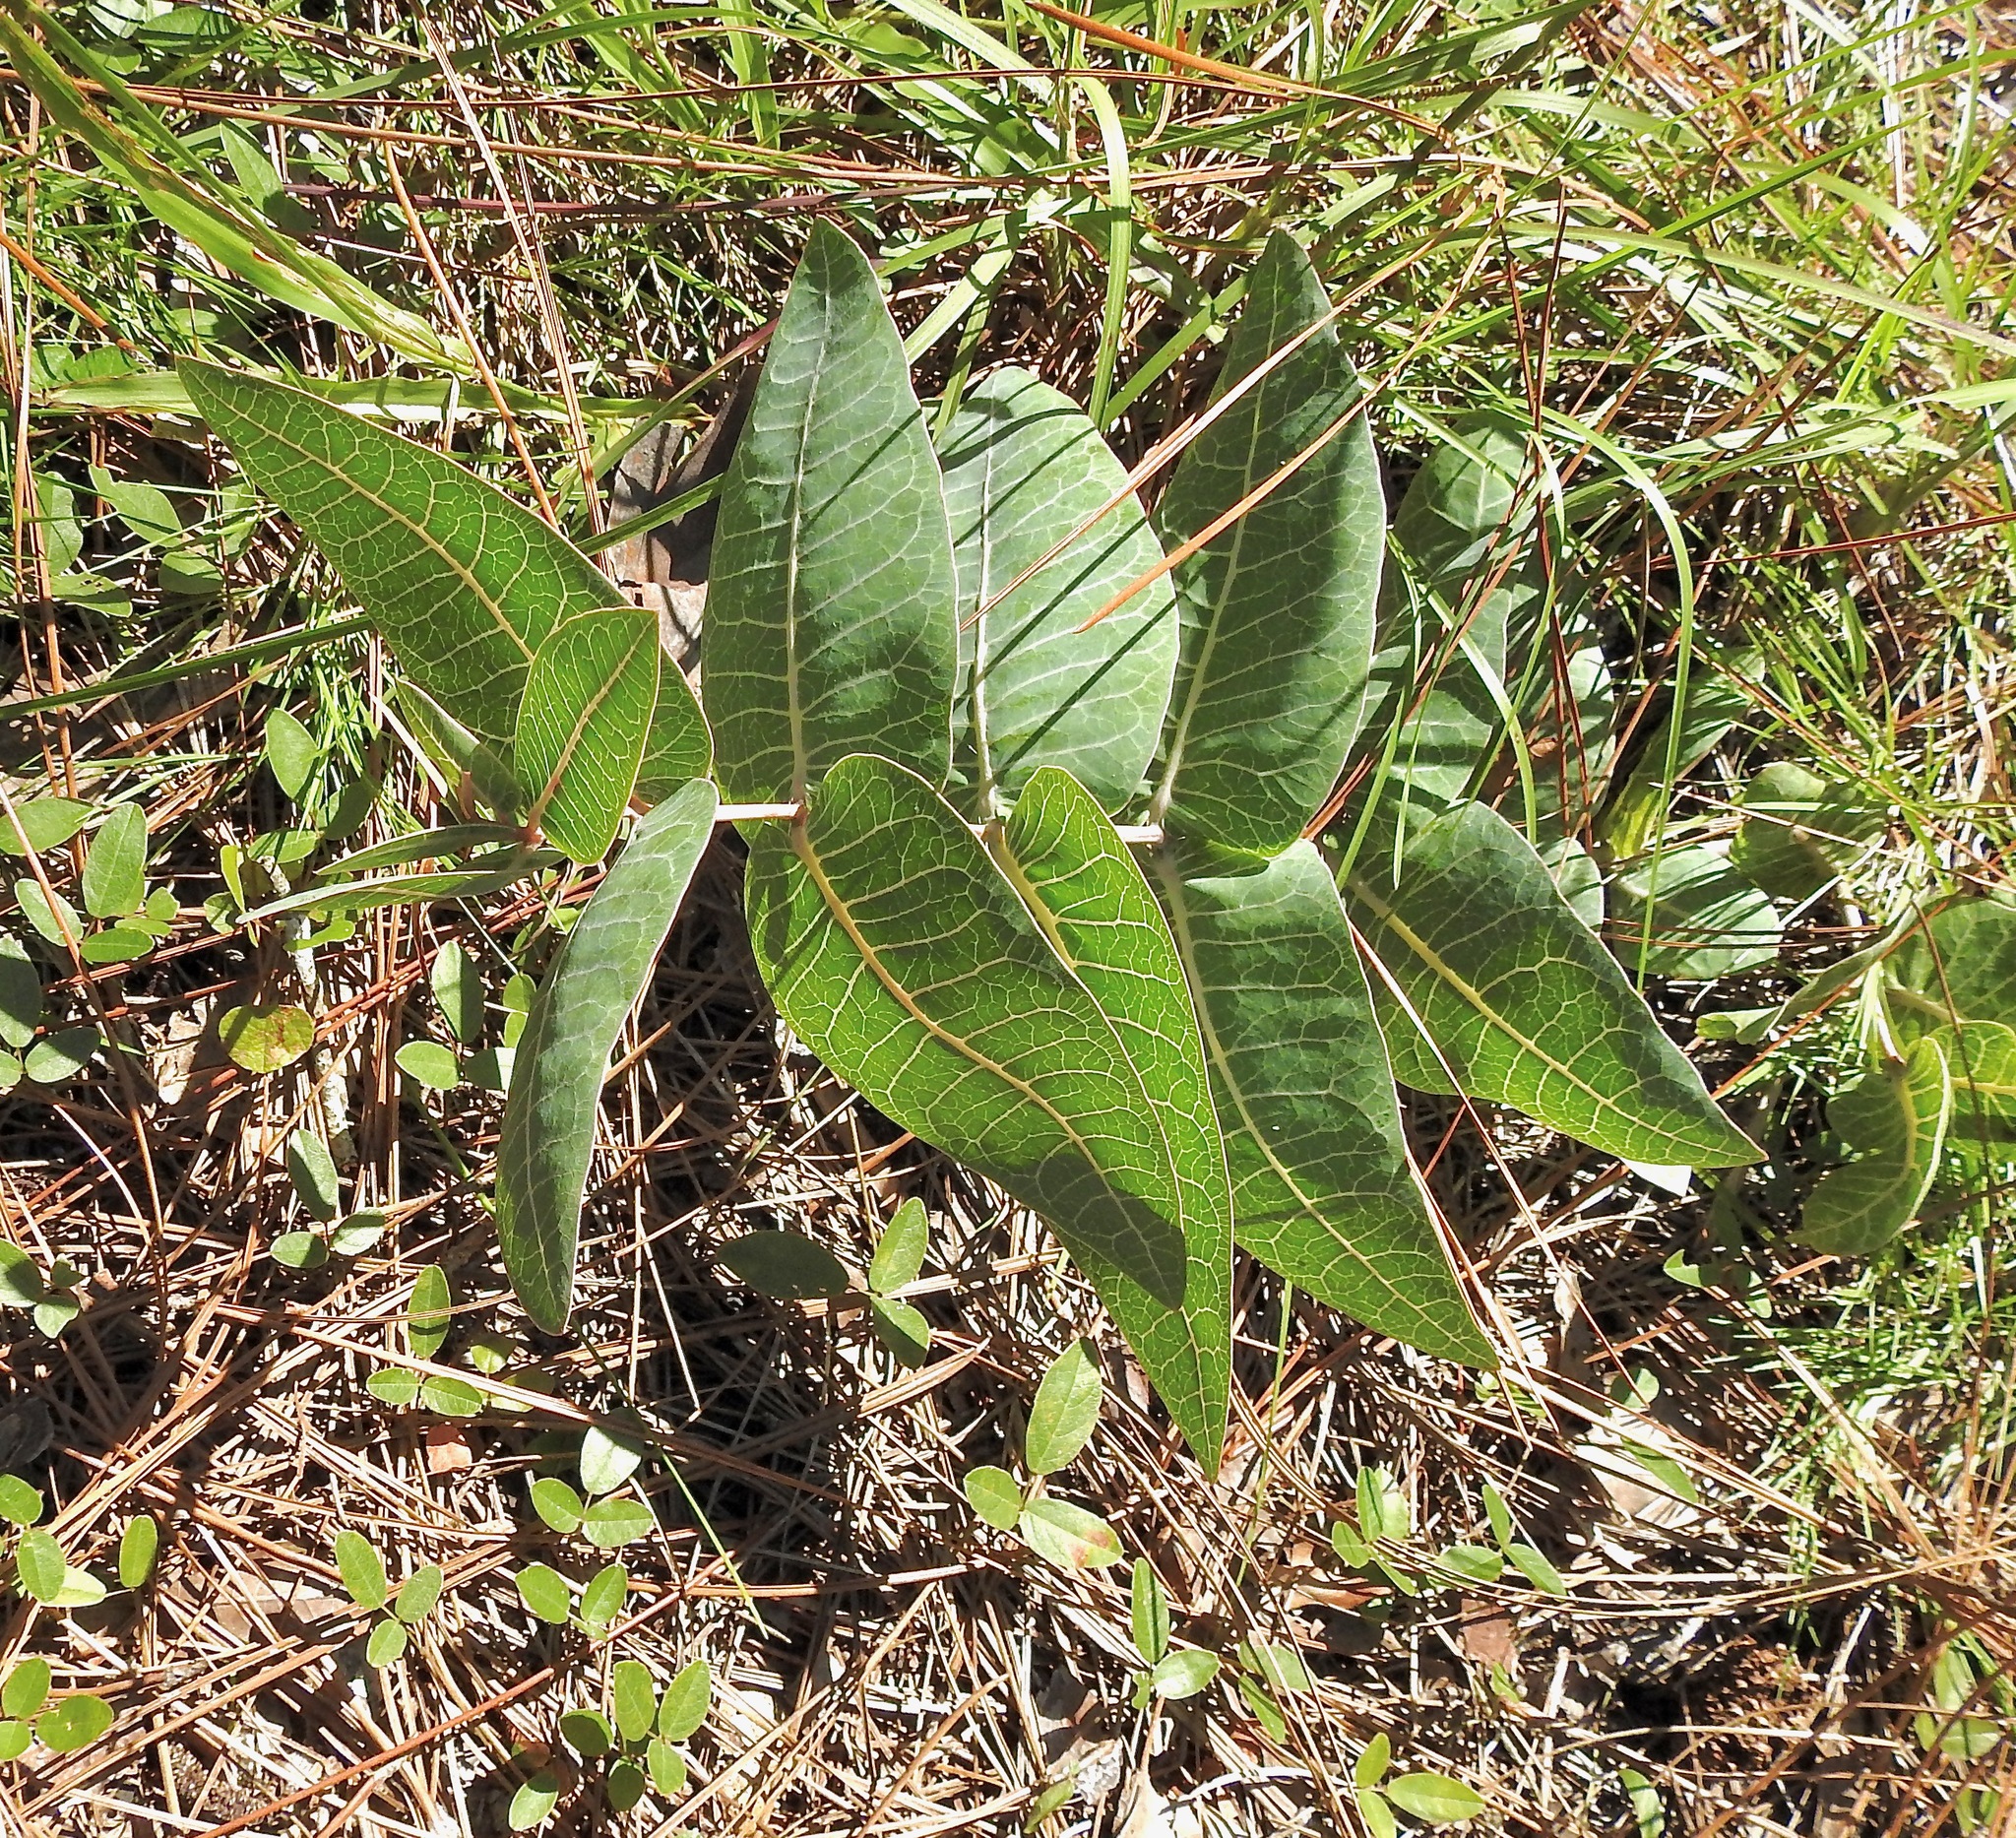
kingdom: Plantae
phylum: Tracheophyta
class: Magnoliopsida
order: Gentianales
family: Apocynaceae
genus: Asclepias
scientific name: Asclepias humistrata
